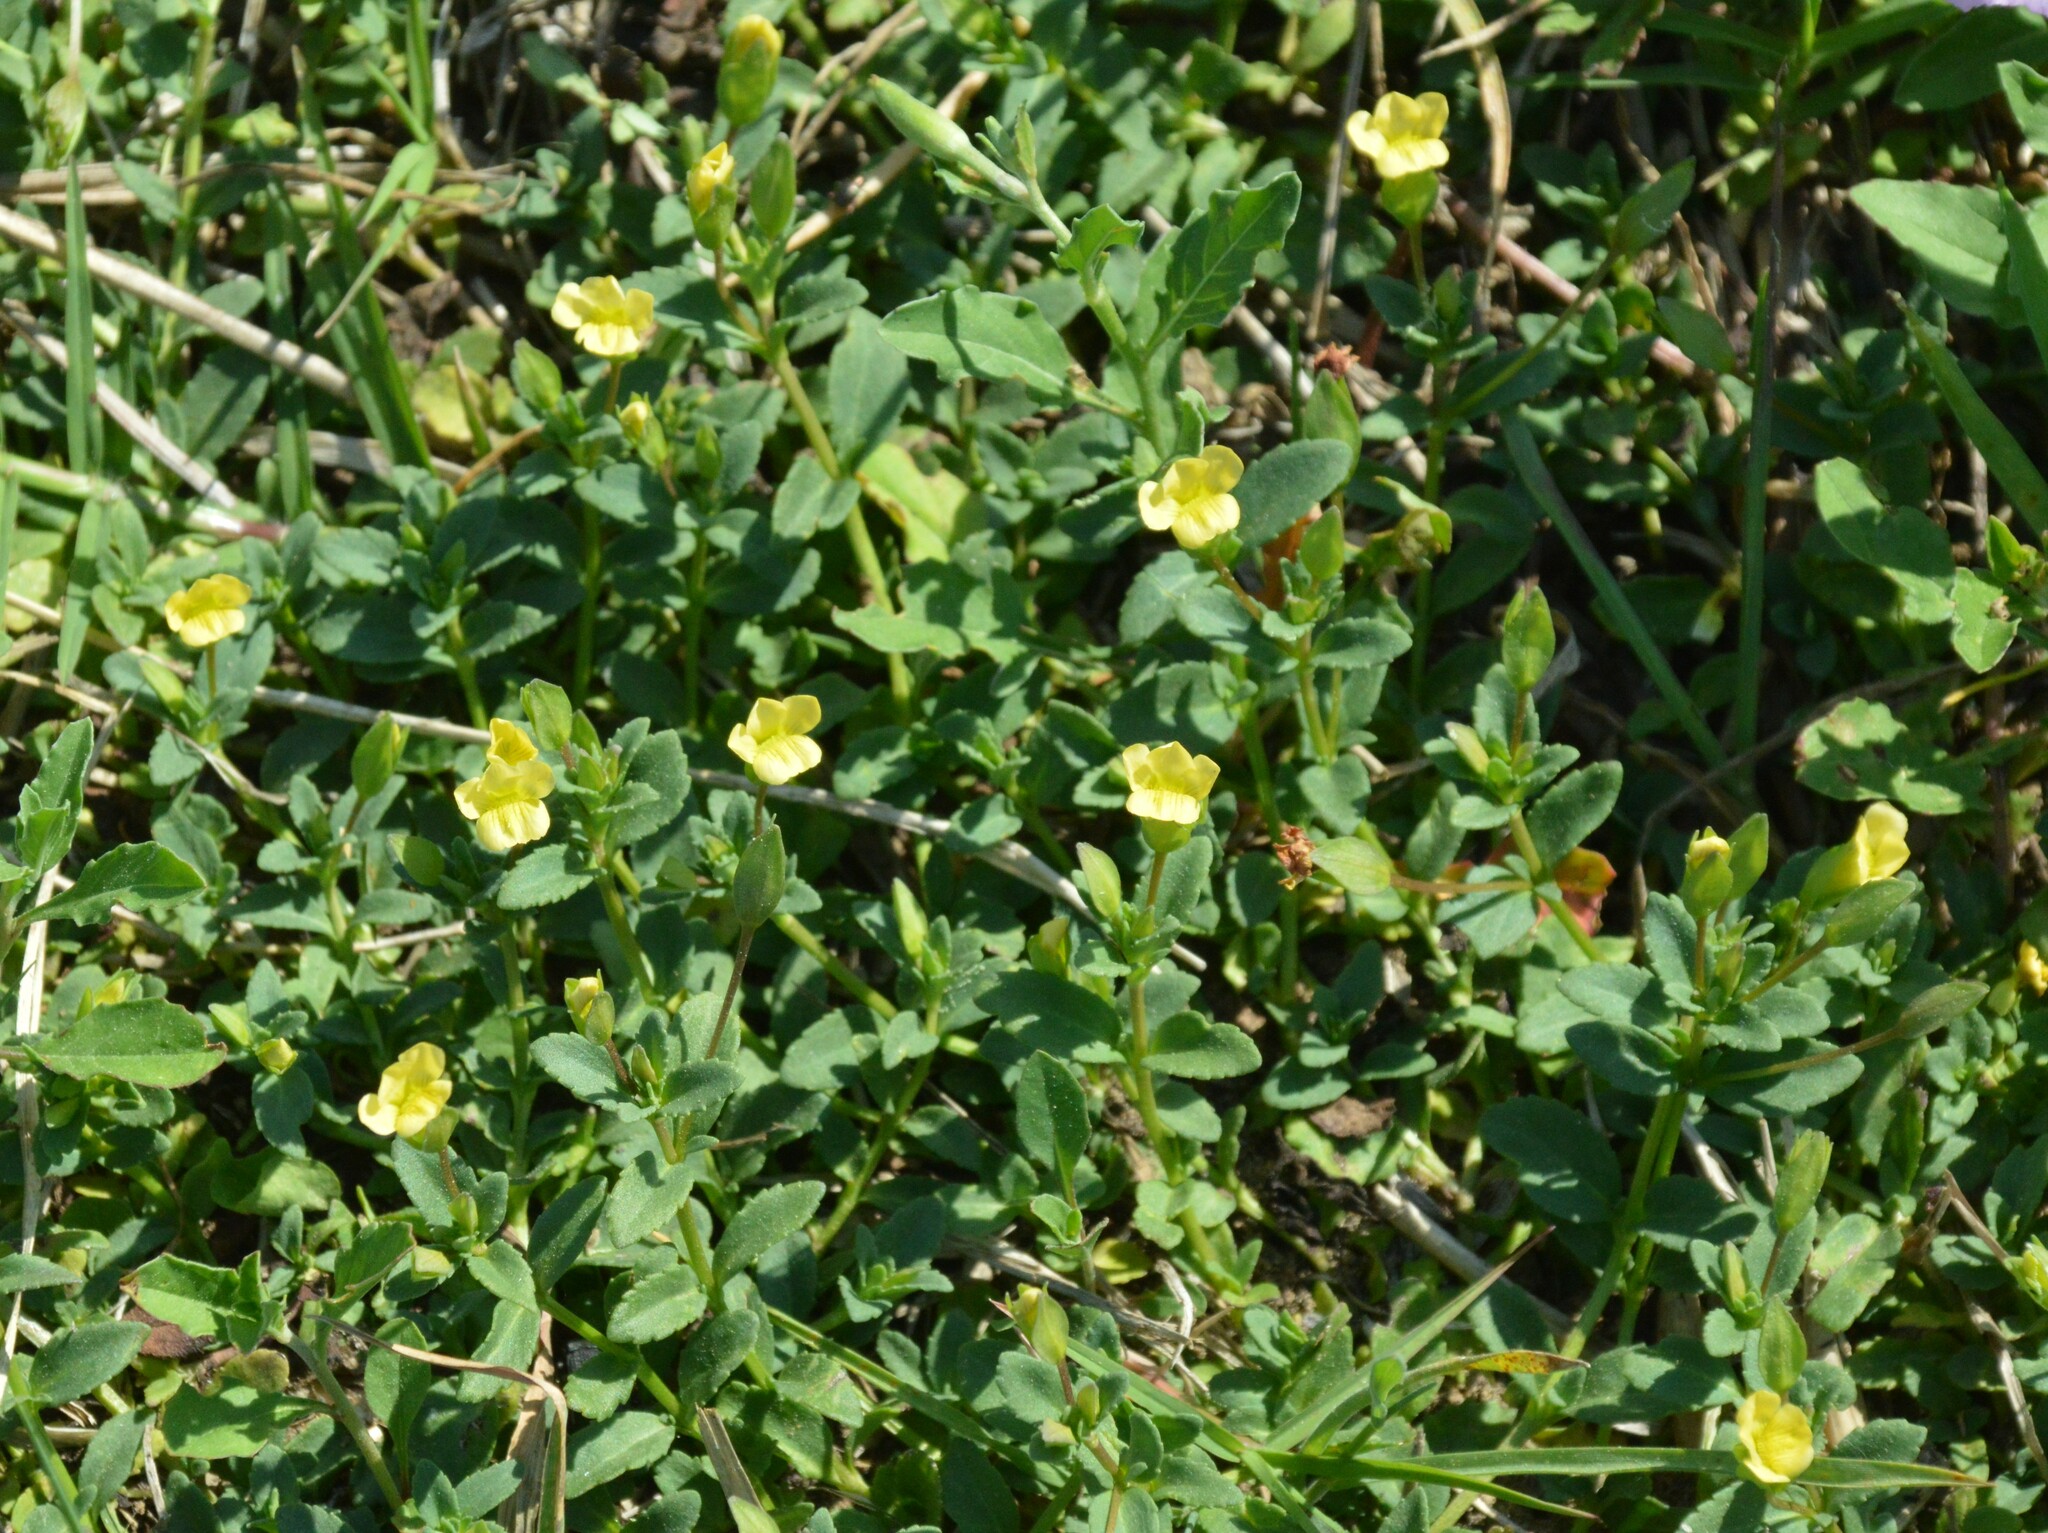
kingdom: Plantae
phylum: Tracheophyta
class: Magnoliopsida
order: Lamiales
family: Plantaginaceae
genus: Mecardonia
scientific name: Mecardonia procumbens
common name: Baby jump-up
